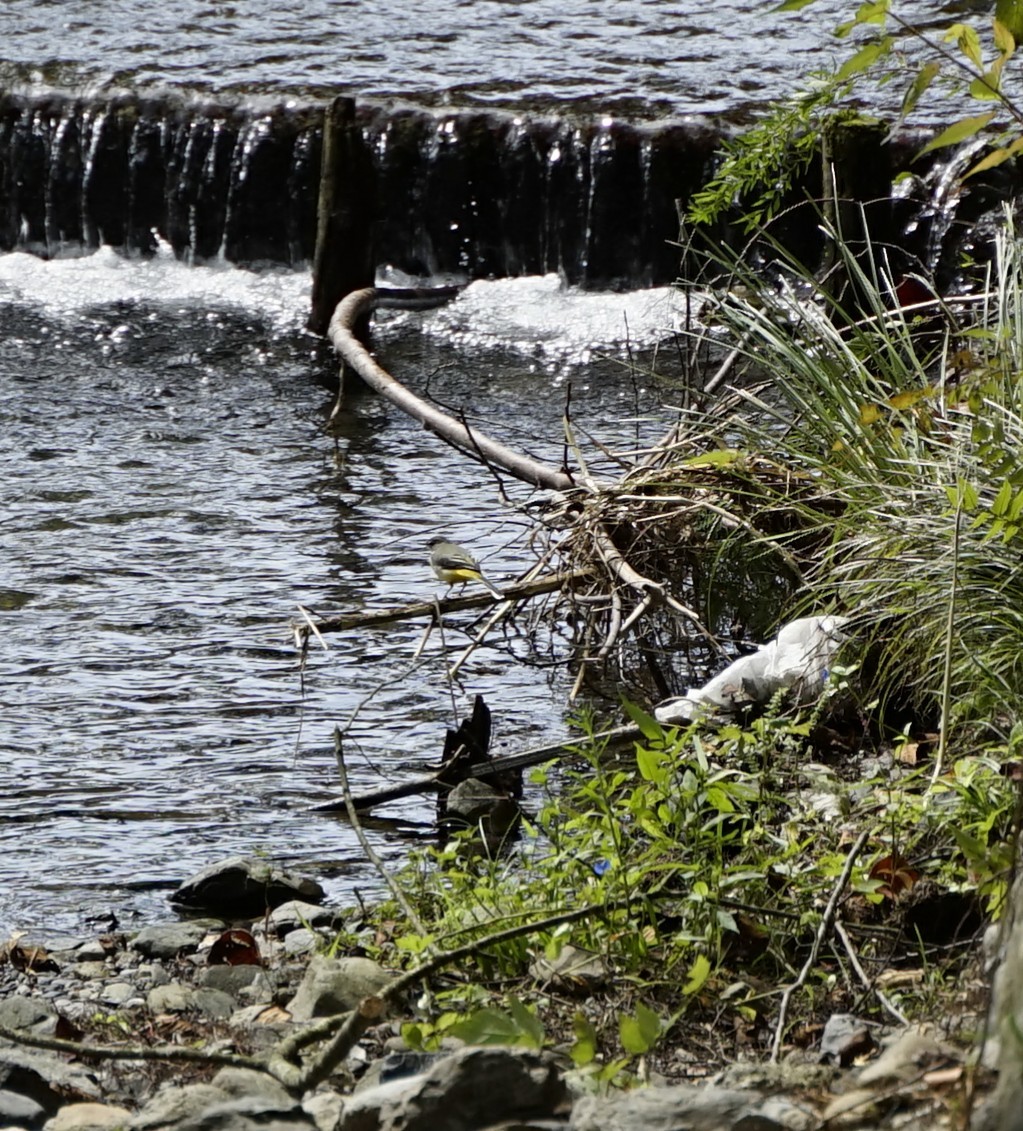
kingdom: Animalia
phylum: Chordata
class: Aves
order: Passeriformes
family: Motacillidae
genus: Motacilla
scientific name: Motacilla cinerea
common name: Grey wagtail
